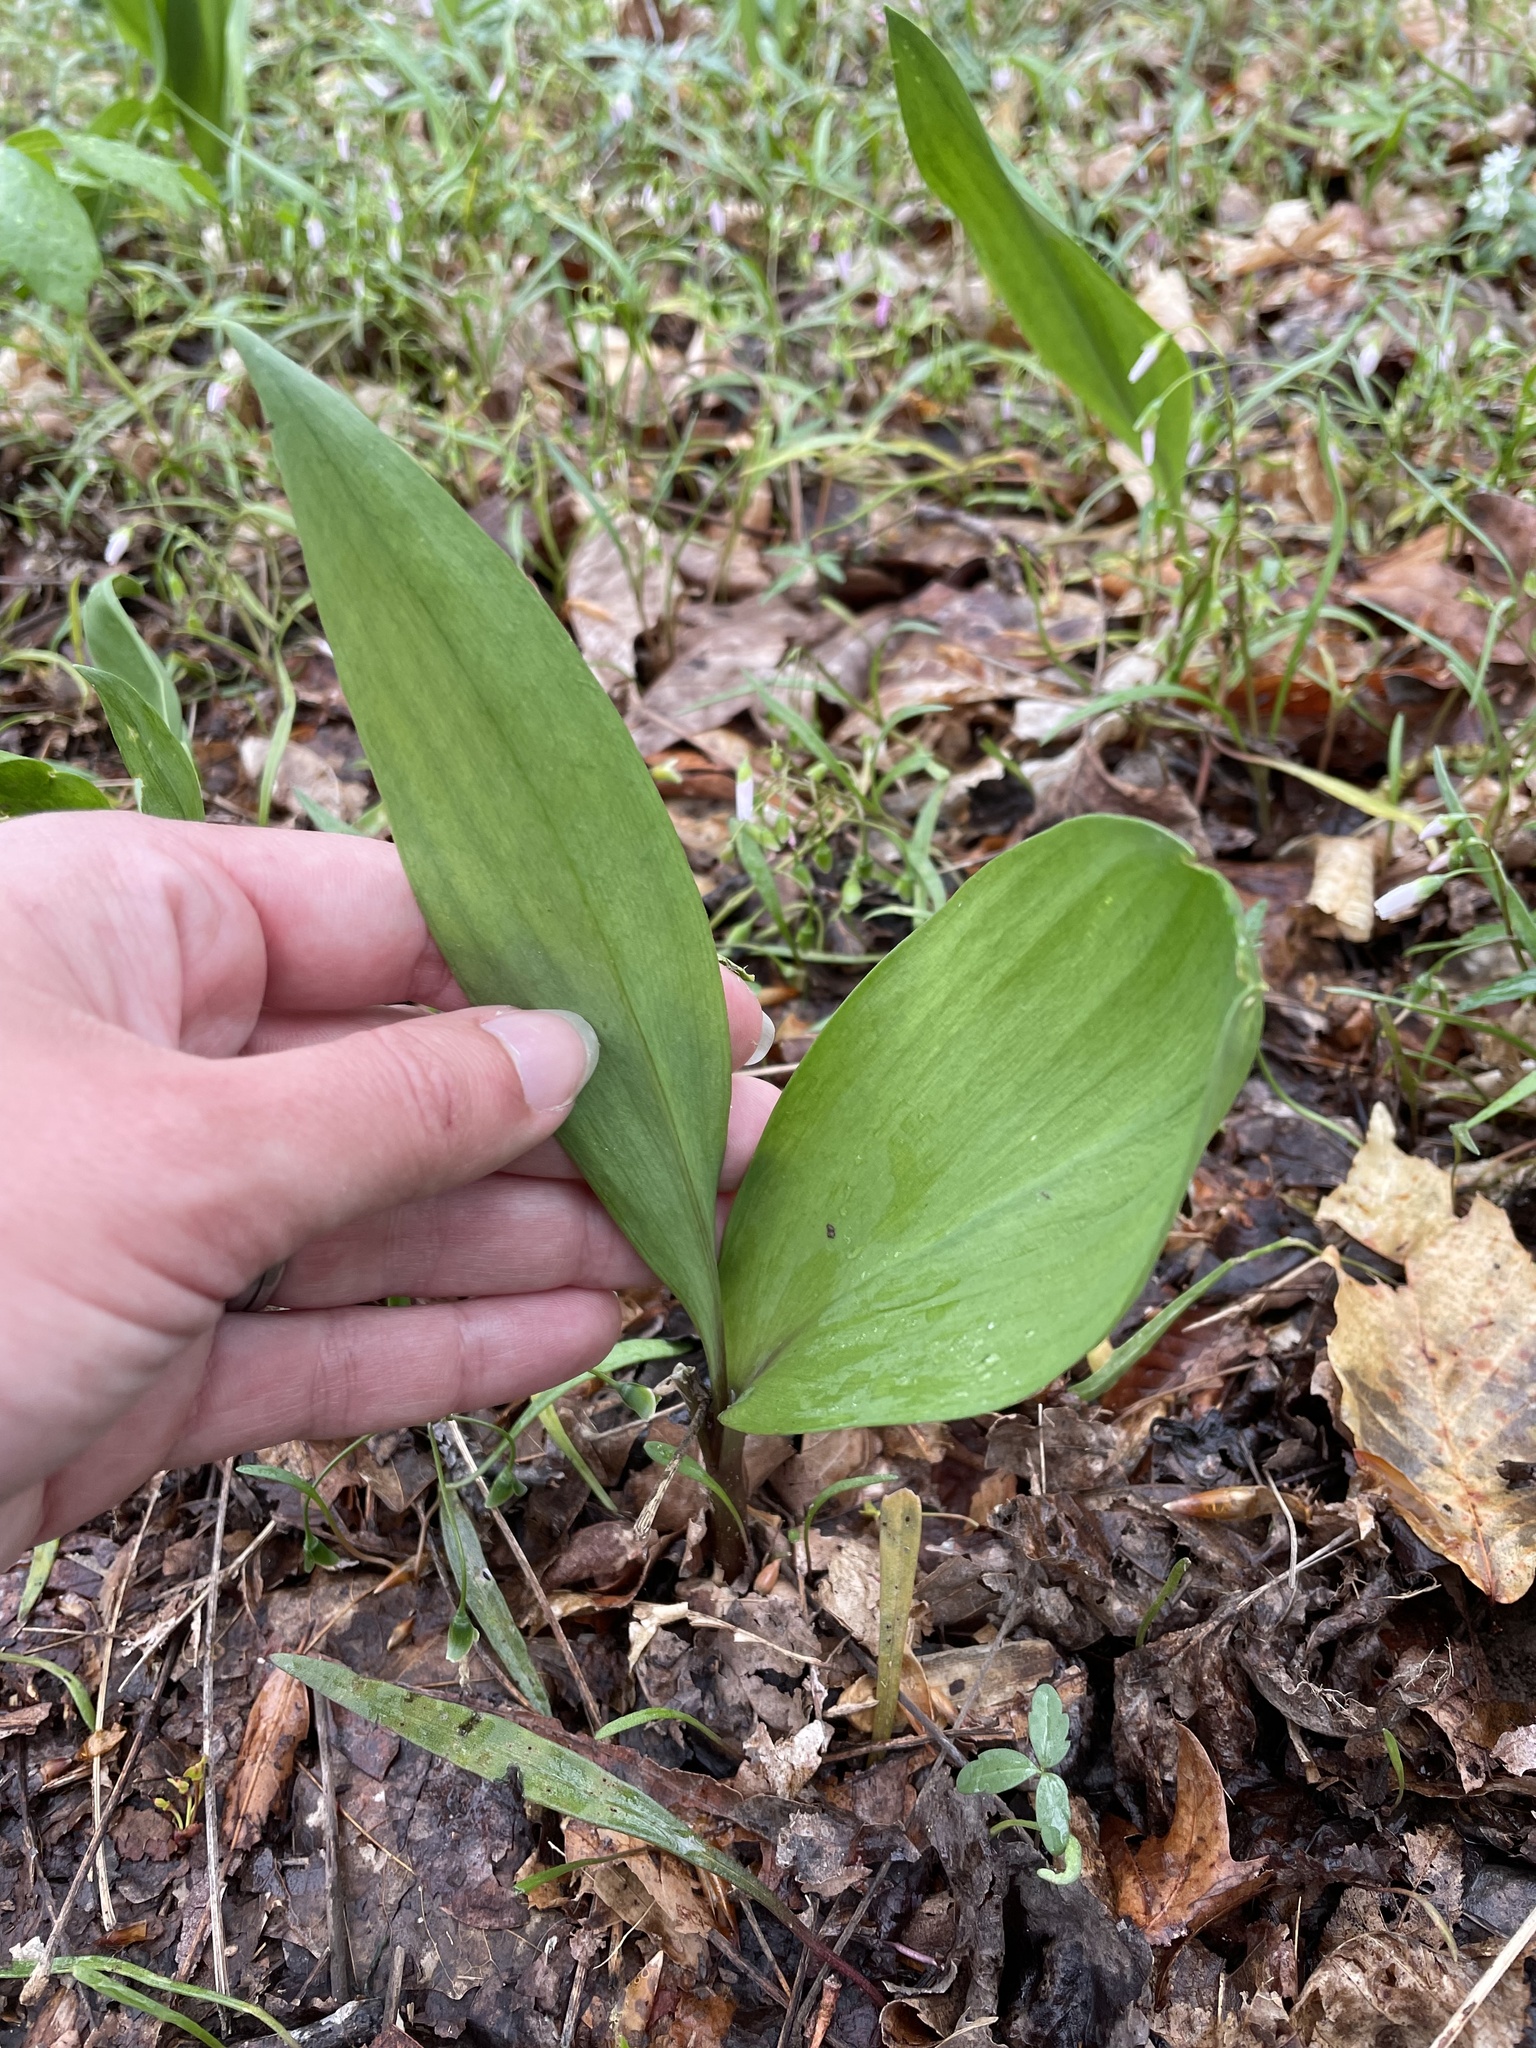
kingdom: Plantae
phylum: Tracheophyta
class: Liliopsida
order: Asparagales
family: Amaryllidaceae
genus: Allium
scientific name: Allium tricoccum
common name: Ramp
